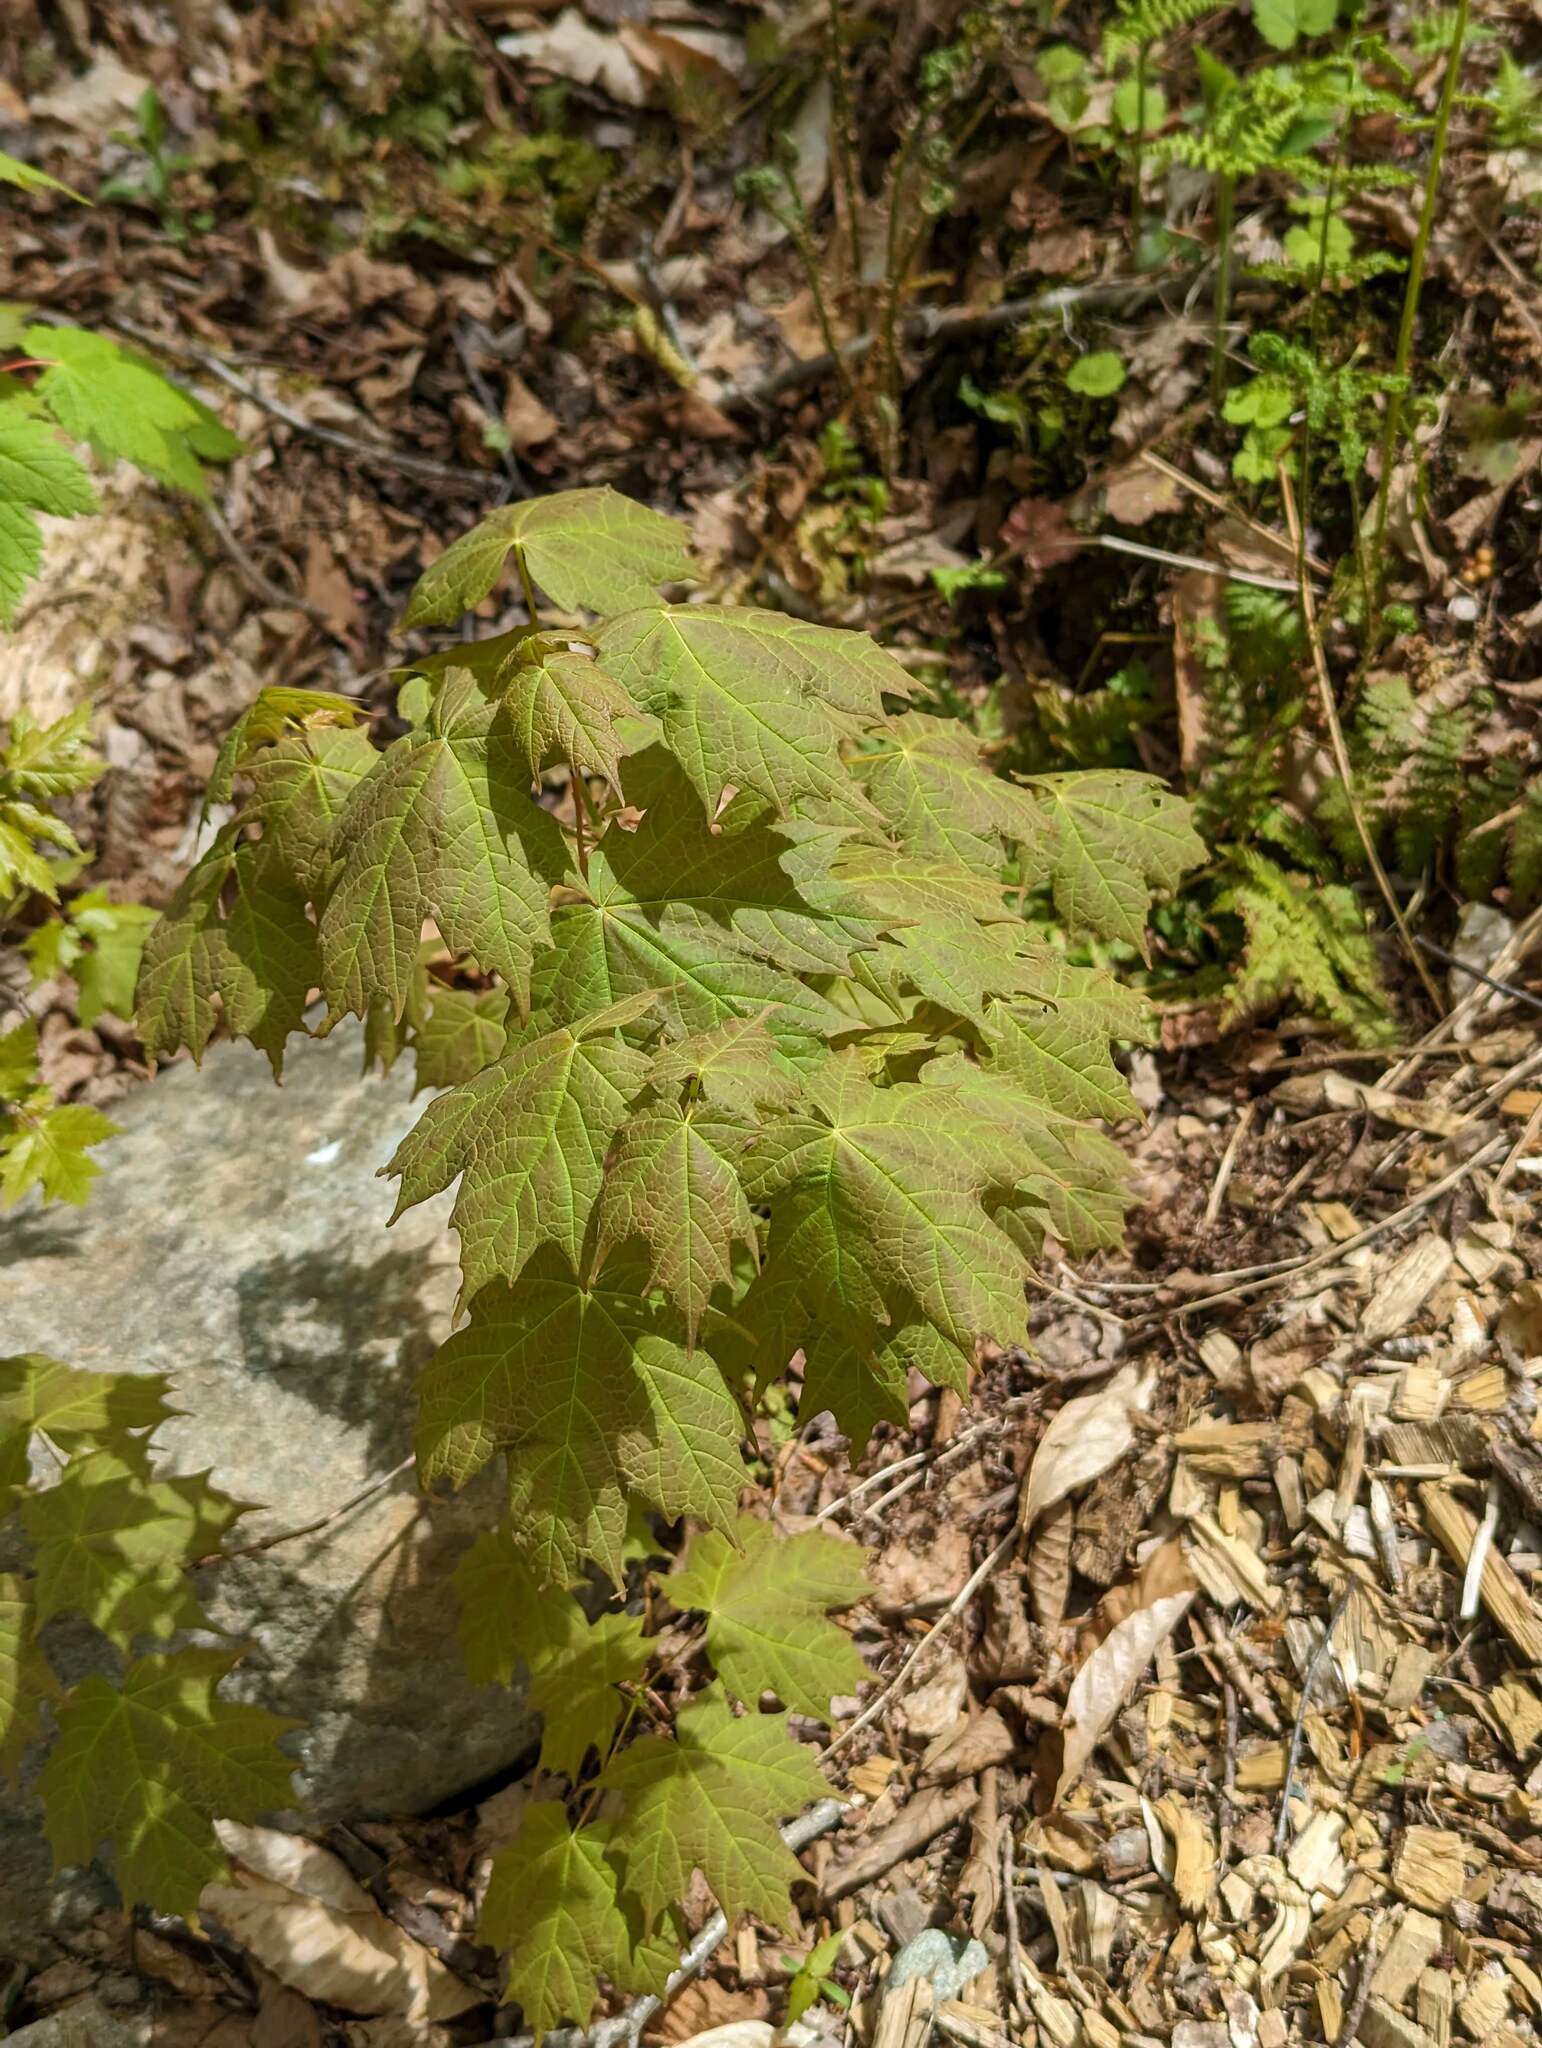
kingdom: Plantae
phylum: Tracheophyta
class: Magnoliopsida
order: Sapindales
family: Sapindaceae
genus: Acer
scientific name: Acer saccharum
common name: Sugar maple
